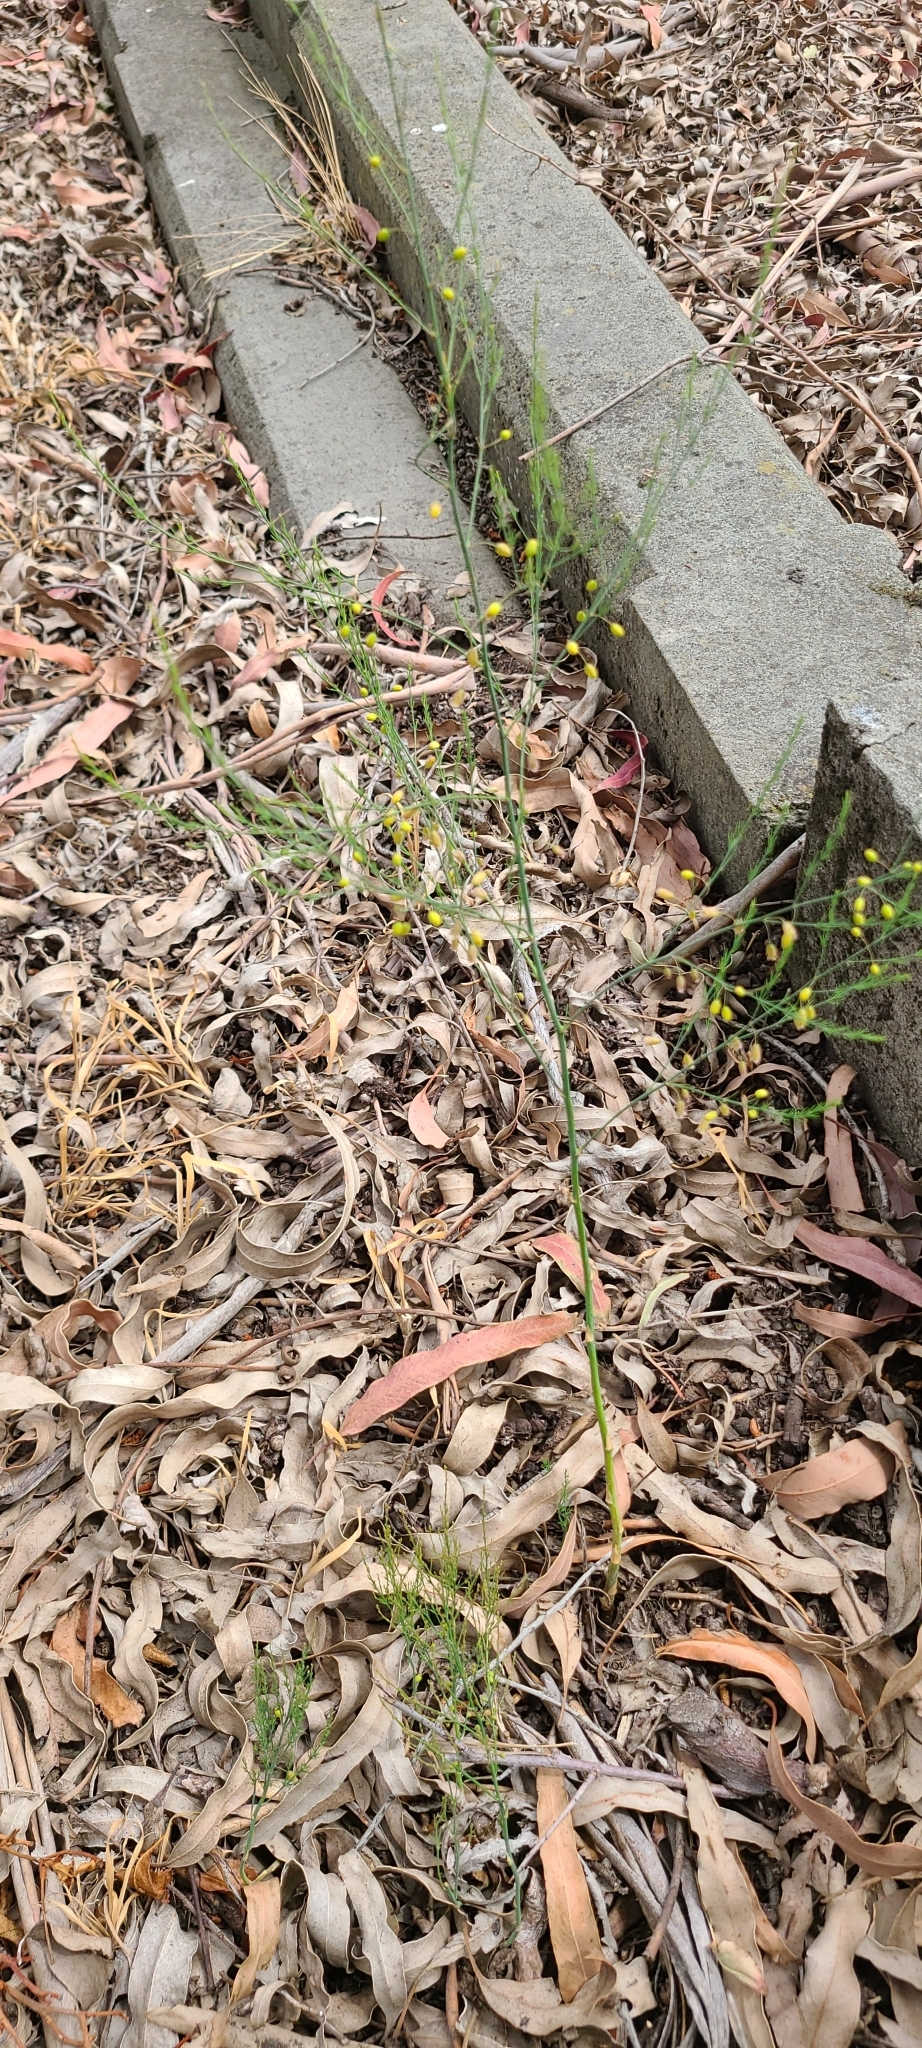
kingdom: Plantae
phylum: Tracheophyta
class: Liliopsida
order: Asparagales
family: Asparagaceae
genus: Asparagus
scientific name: Asparagus officinalis
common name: Garden asparagus
